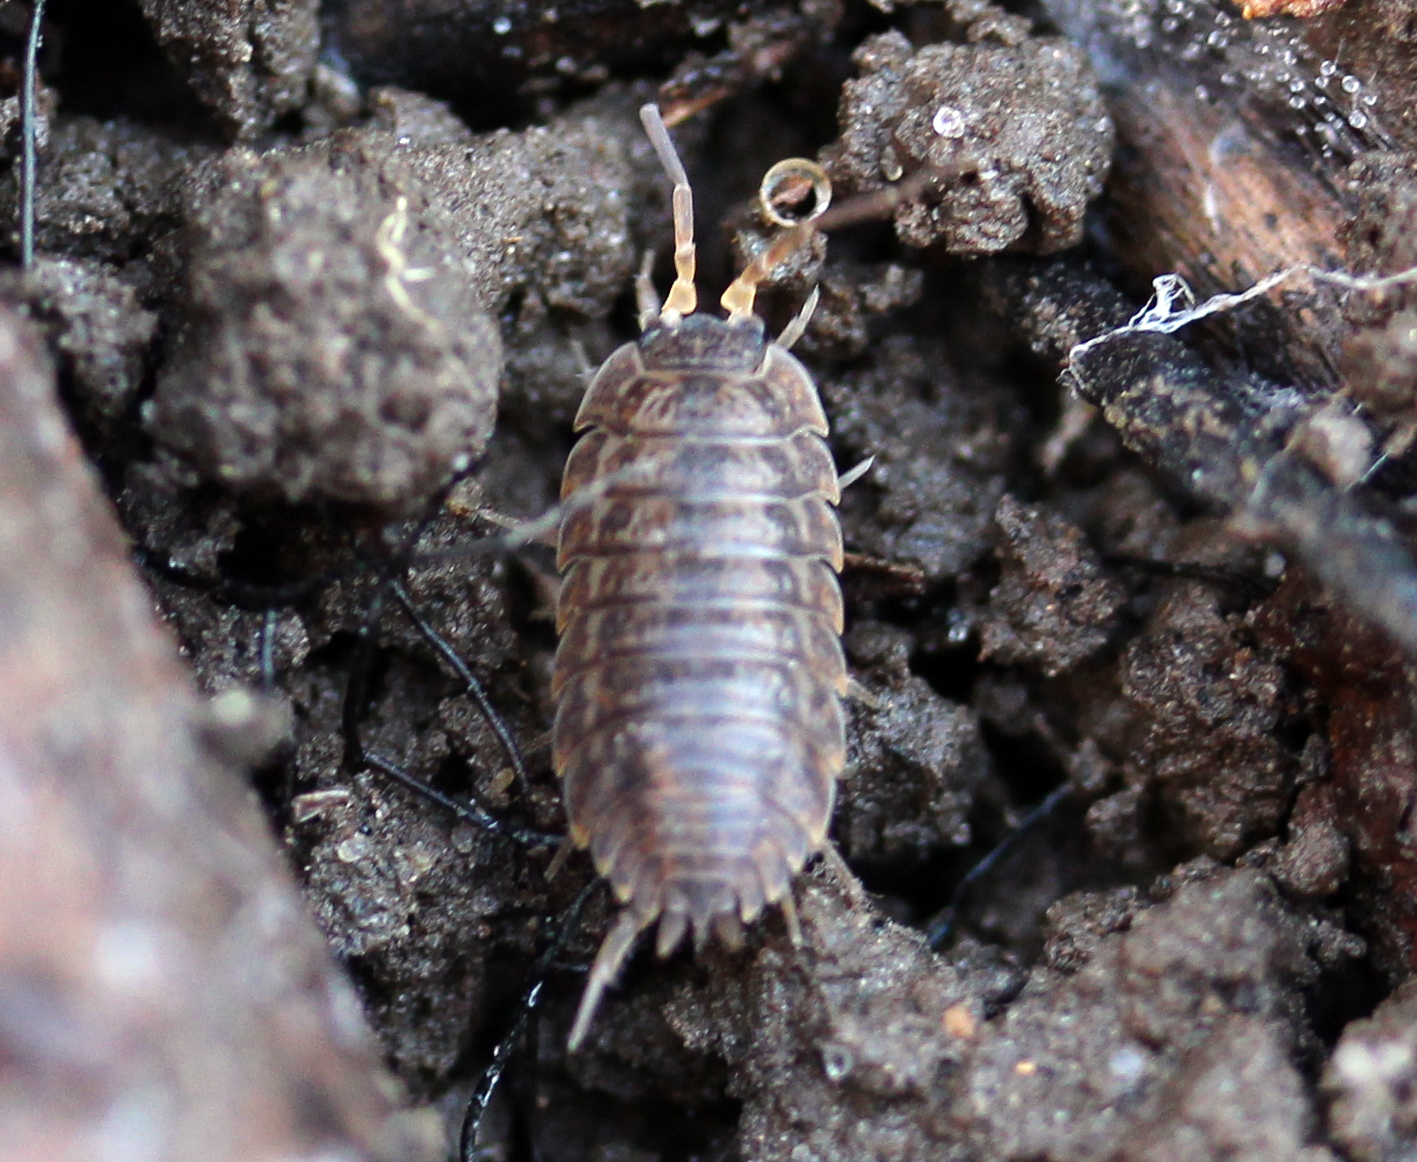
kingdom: Animalia
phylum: Arthropoda
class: Malacostraca
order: Isopoda
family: Trachelipodidae
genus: Trachelipus
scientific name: Trachelipus rathkii
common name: Isopod
